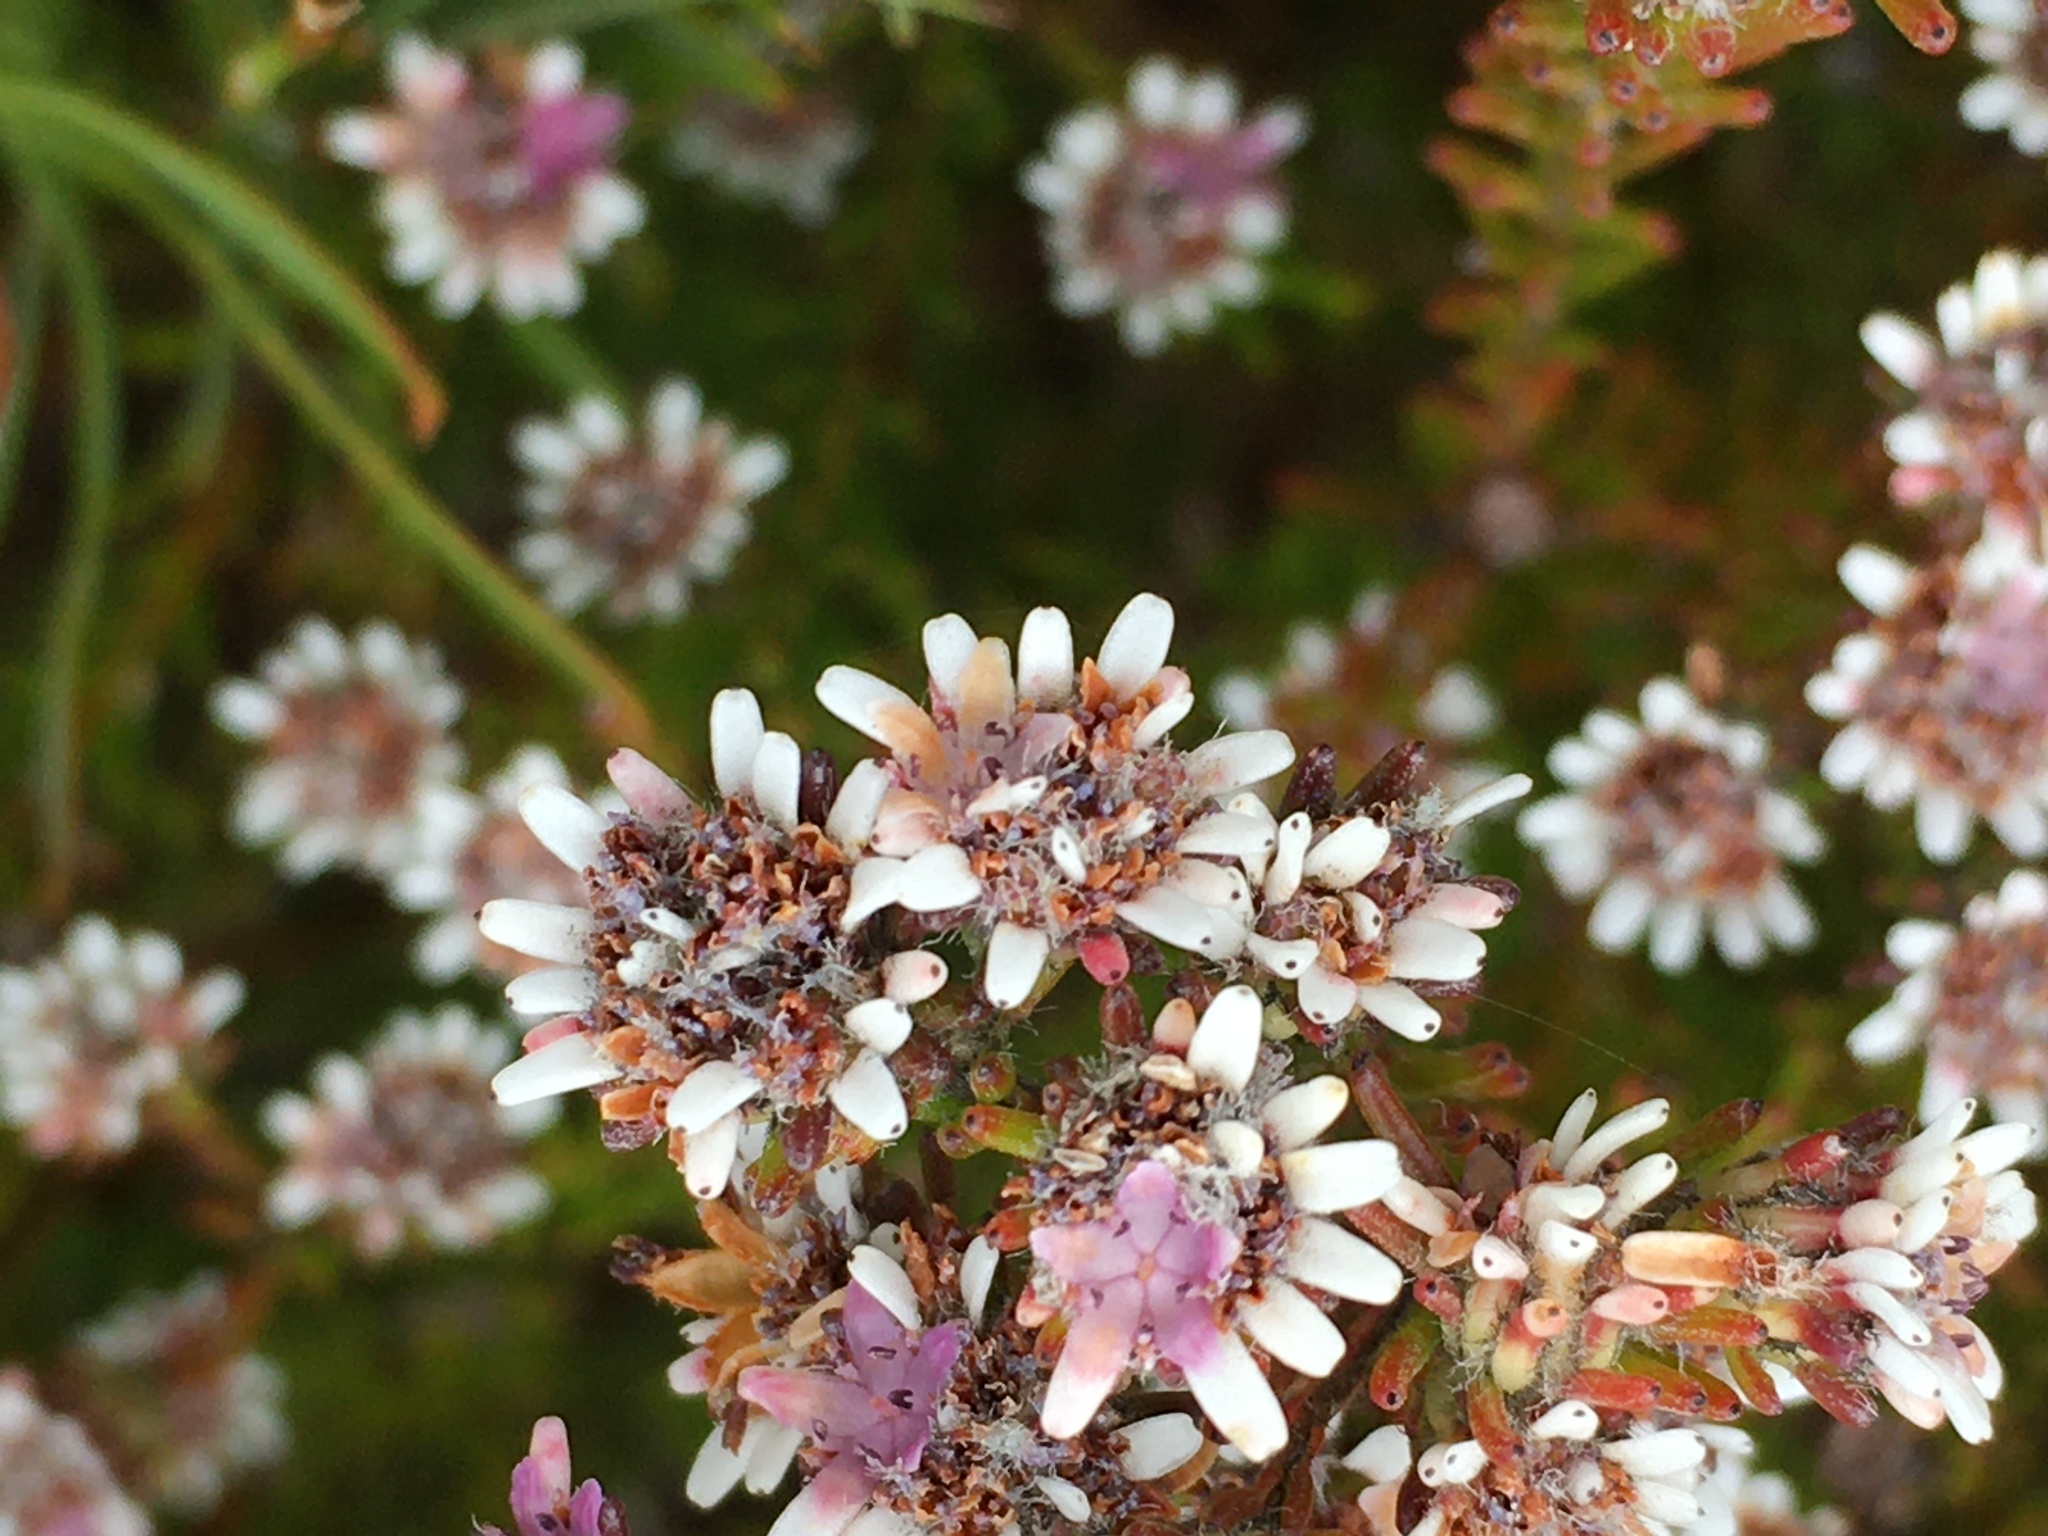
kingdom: Plantae
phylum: Tracheophyta
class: Magnoliopsida
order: Bruniales
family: Bruniaceae
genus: Staavia
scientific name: Staavia radiata
